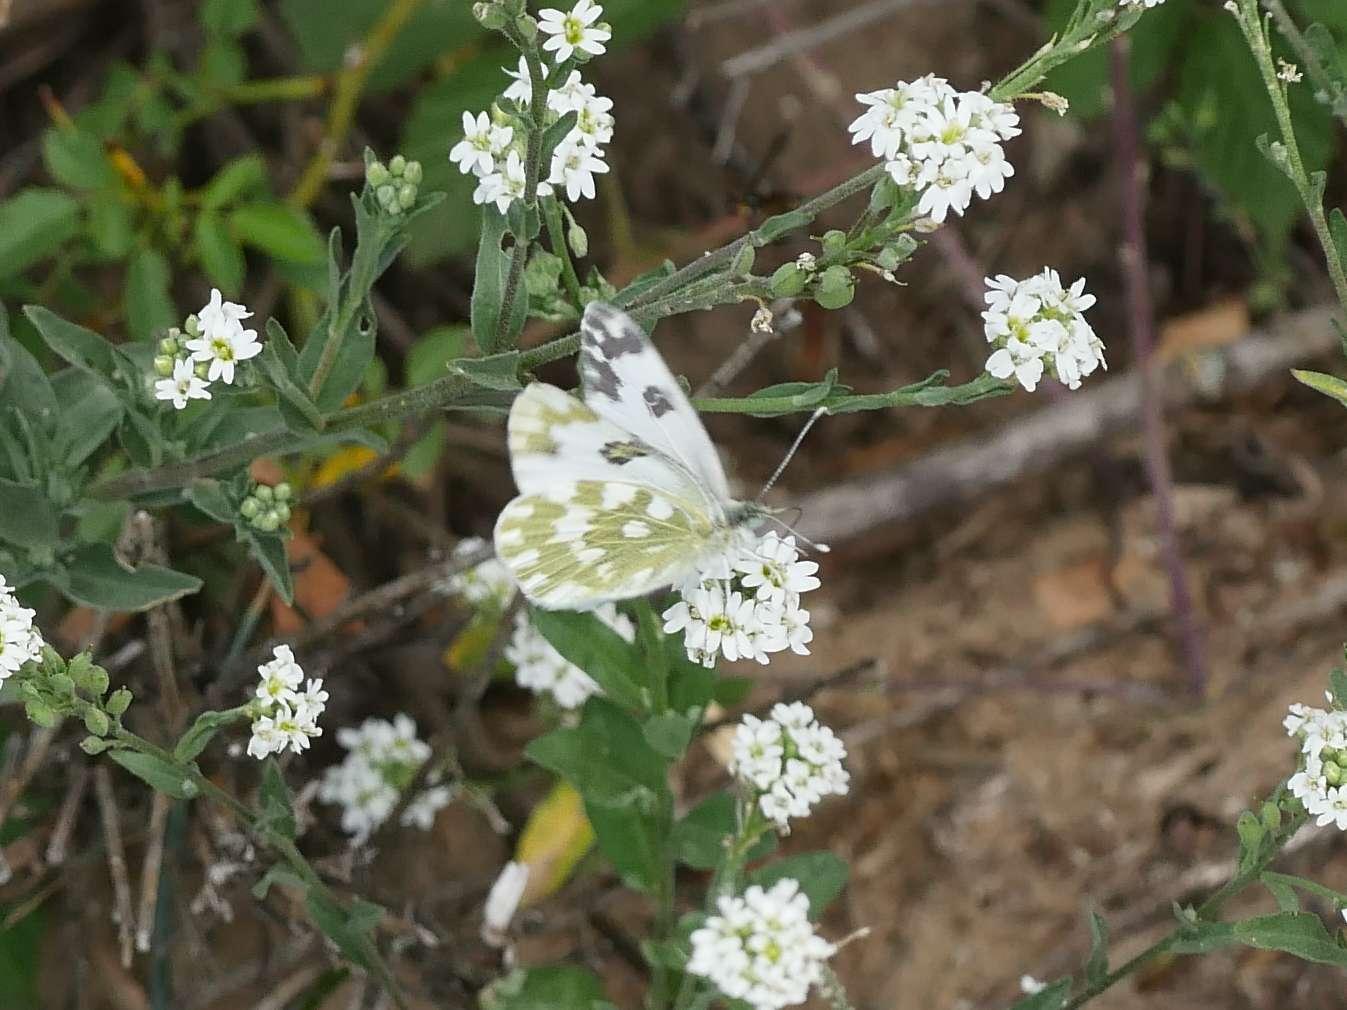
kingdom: Animalia
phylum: Arthropoda
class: Insecta
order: Lepidoptera
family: Pieridae
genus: Pontia
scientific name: Pontia edusa
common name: Eastern bath white
